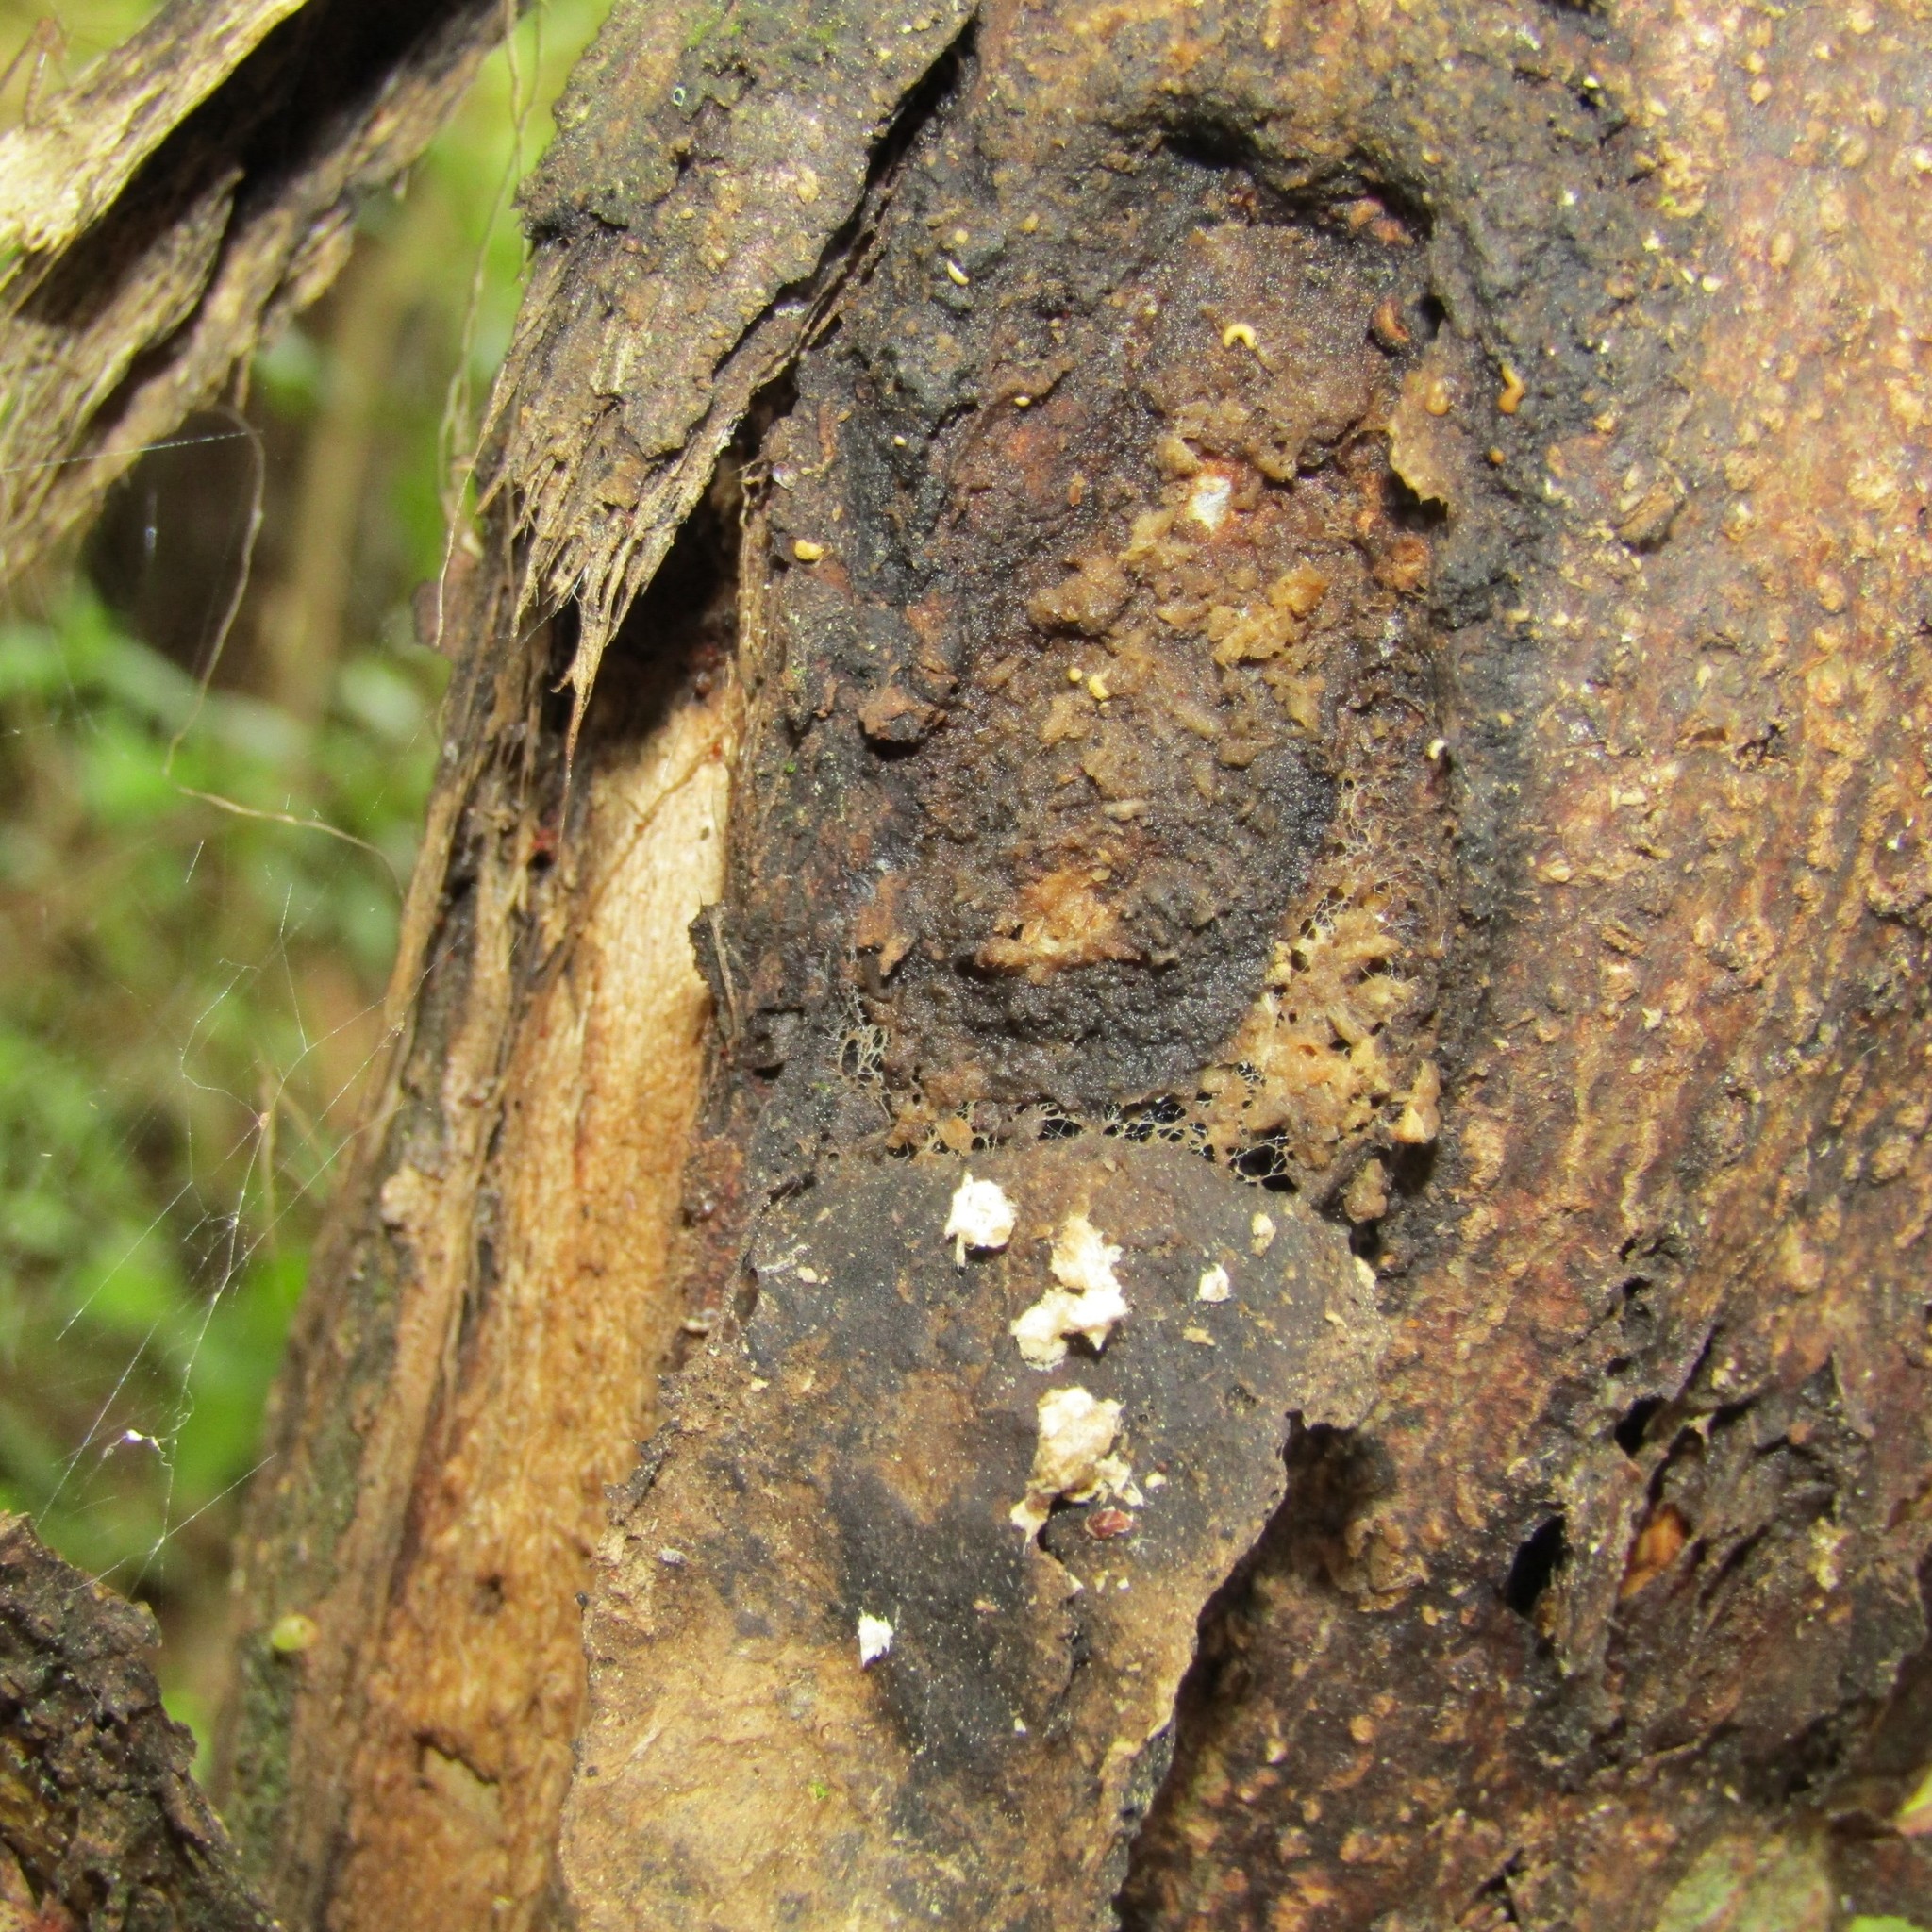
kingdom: Animalia
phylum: Arthropoda
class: Insecta
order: Lepidoptera
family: Hepialidae
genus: Aenetus
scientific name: Aenetus virescens
